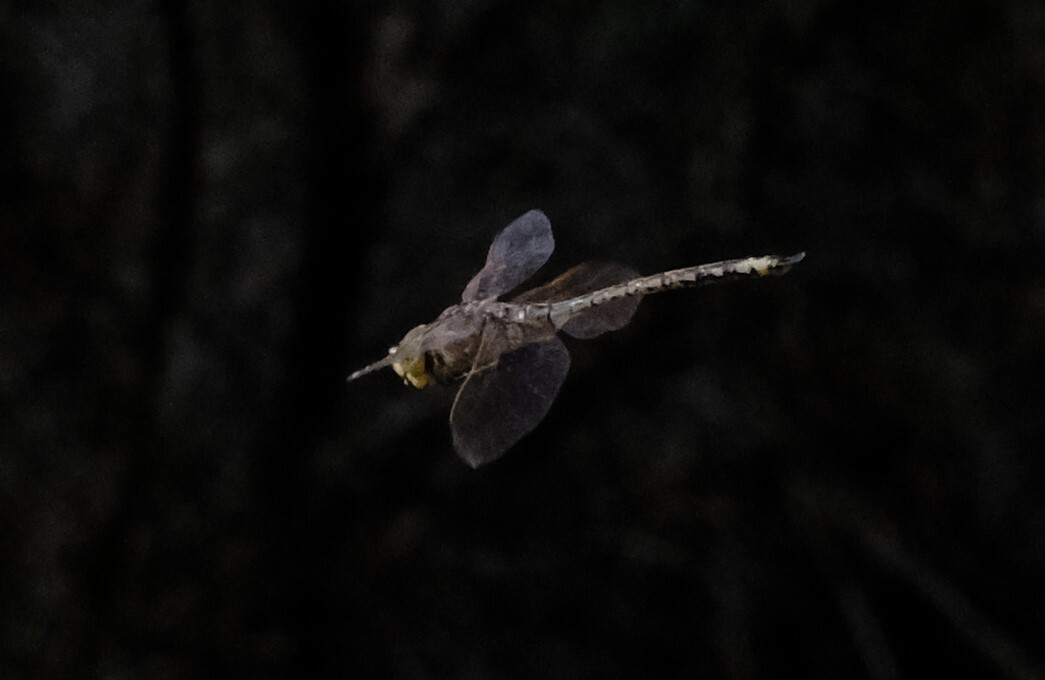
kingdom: Animalia
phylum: Arthropoda
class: Insecta
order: Odonata
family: Aeshnidae
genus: Anax
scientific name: Anax papuensis
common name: Australian emperor
